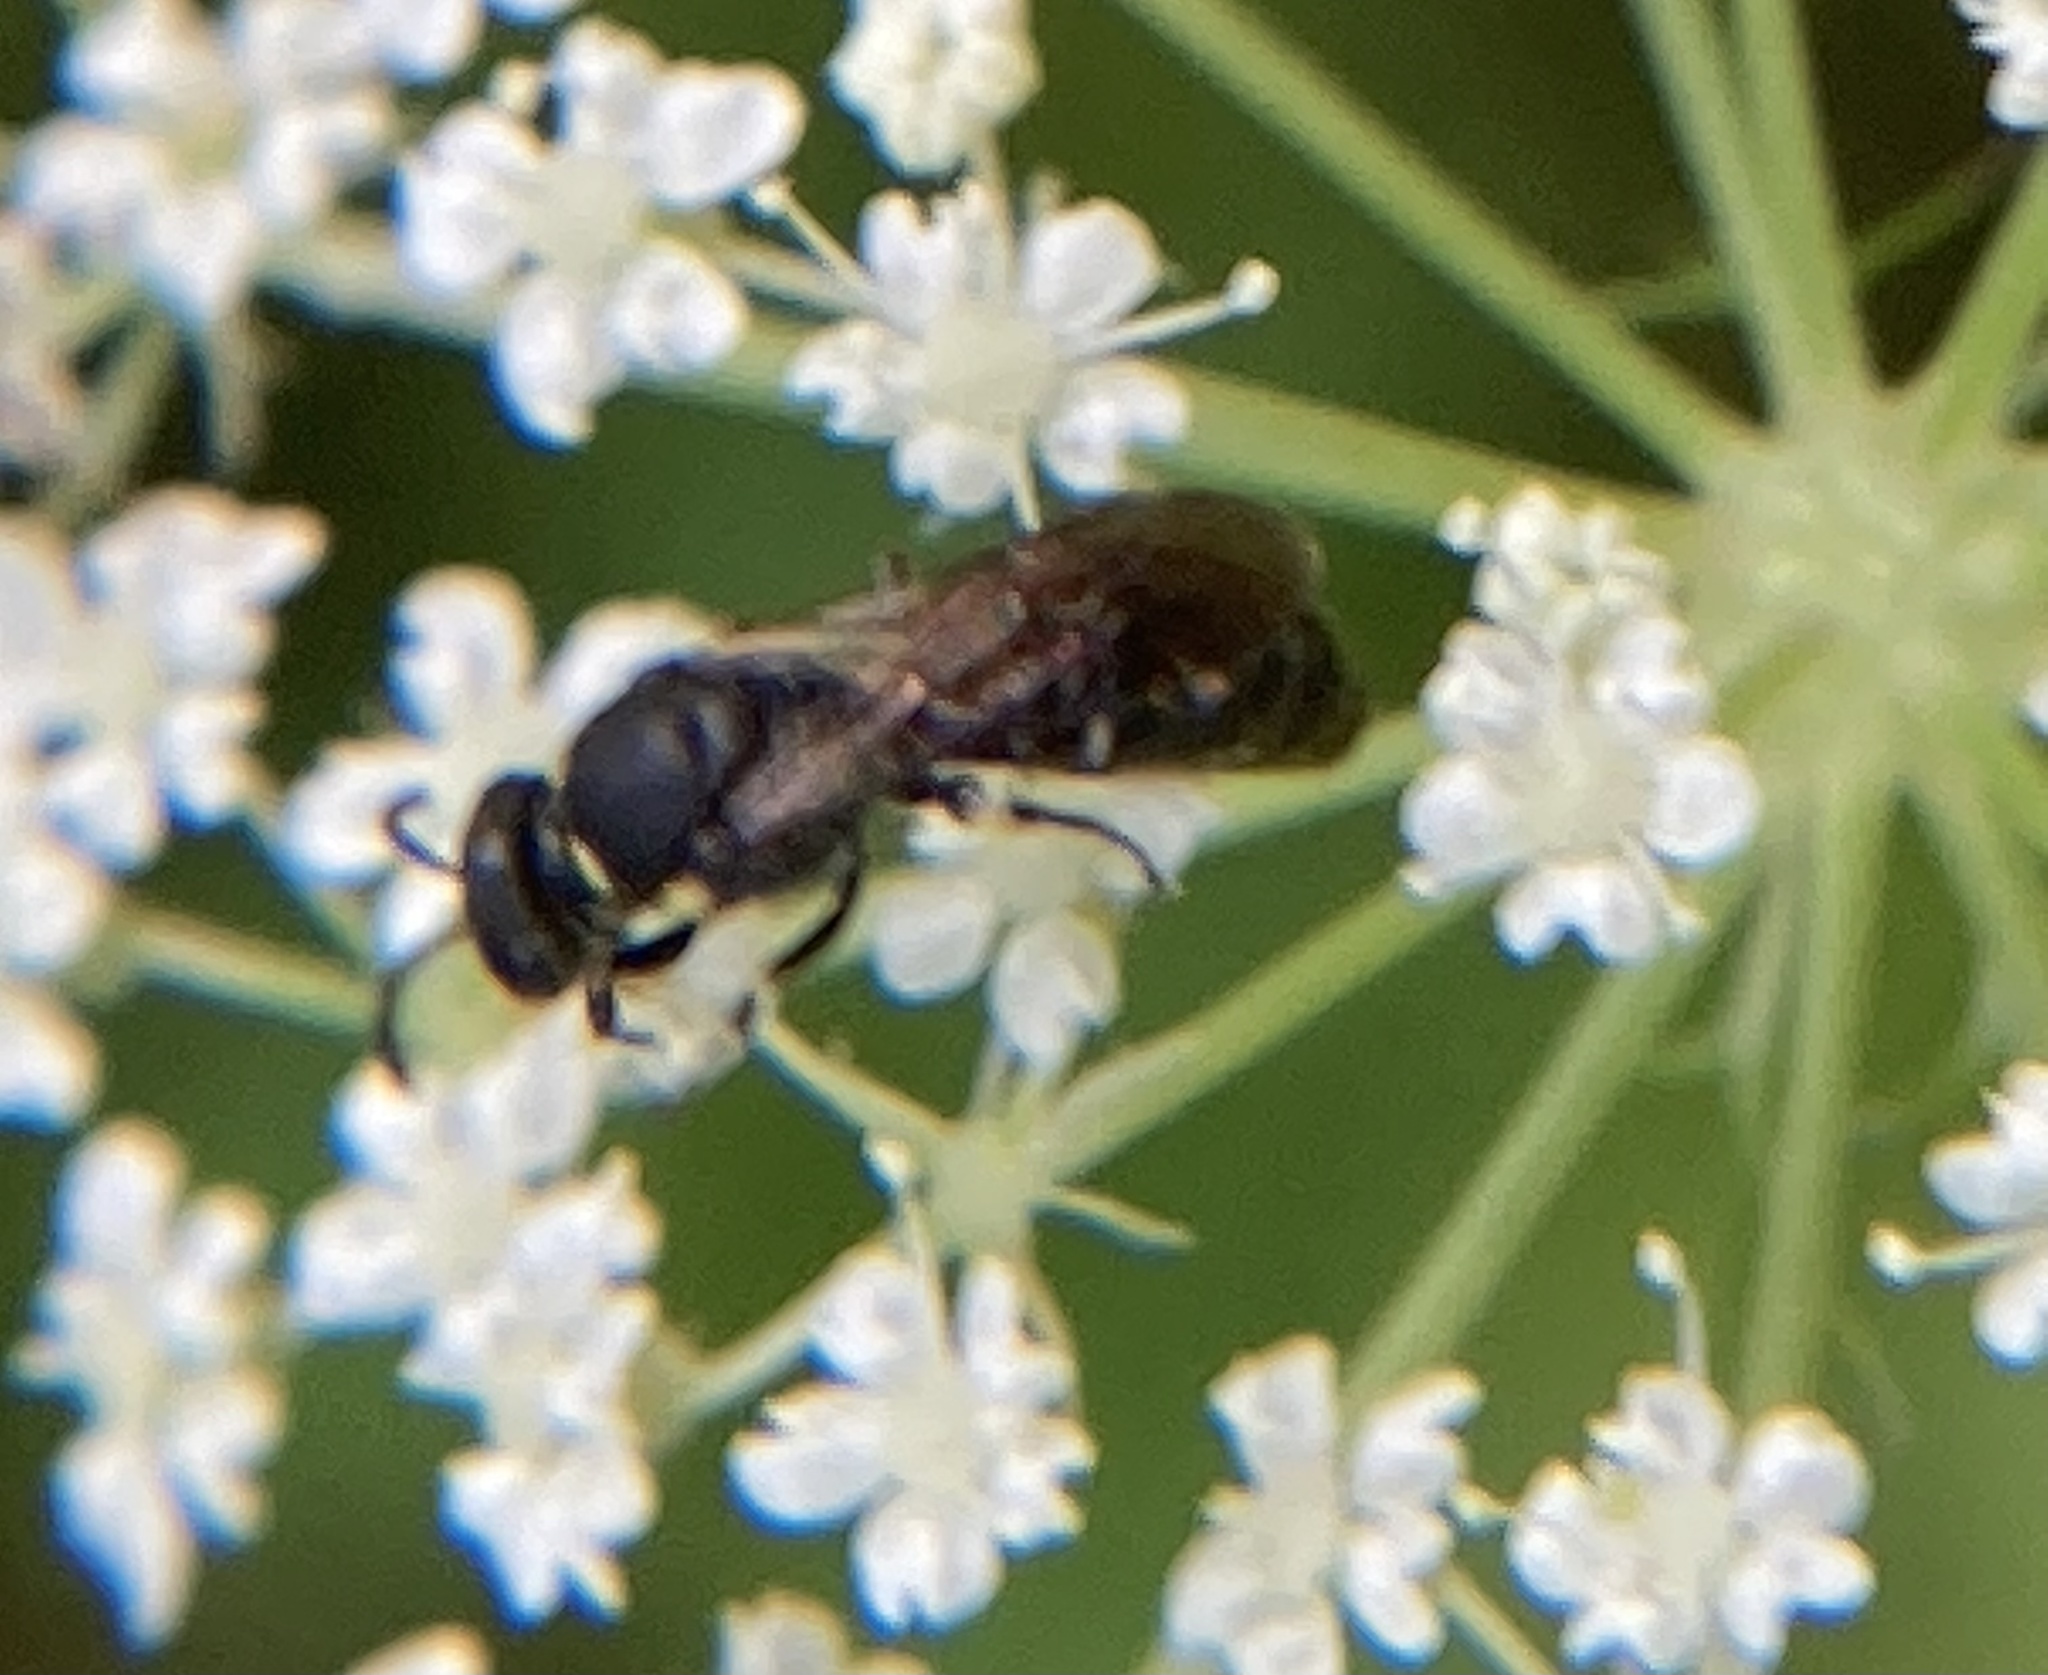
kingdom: Animalia
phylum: Arthropoda
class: Insecta
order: Hymenoptera
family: Colletidae
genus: Hylaeus
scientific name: Hylaeus modestus
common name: Yellow-faced bee
